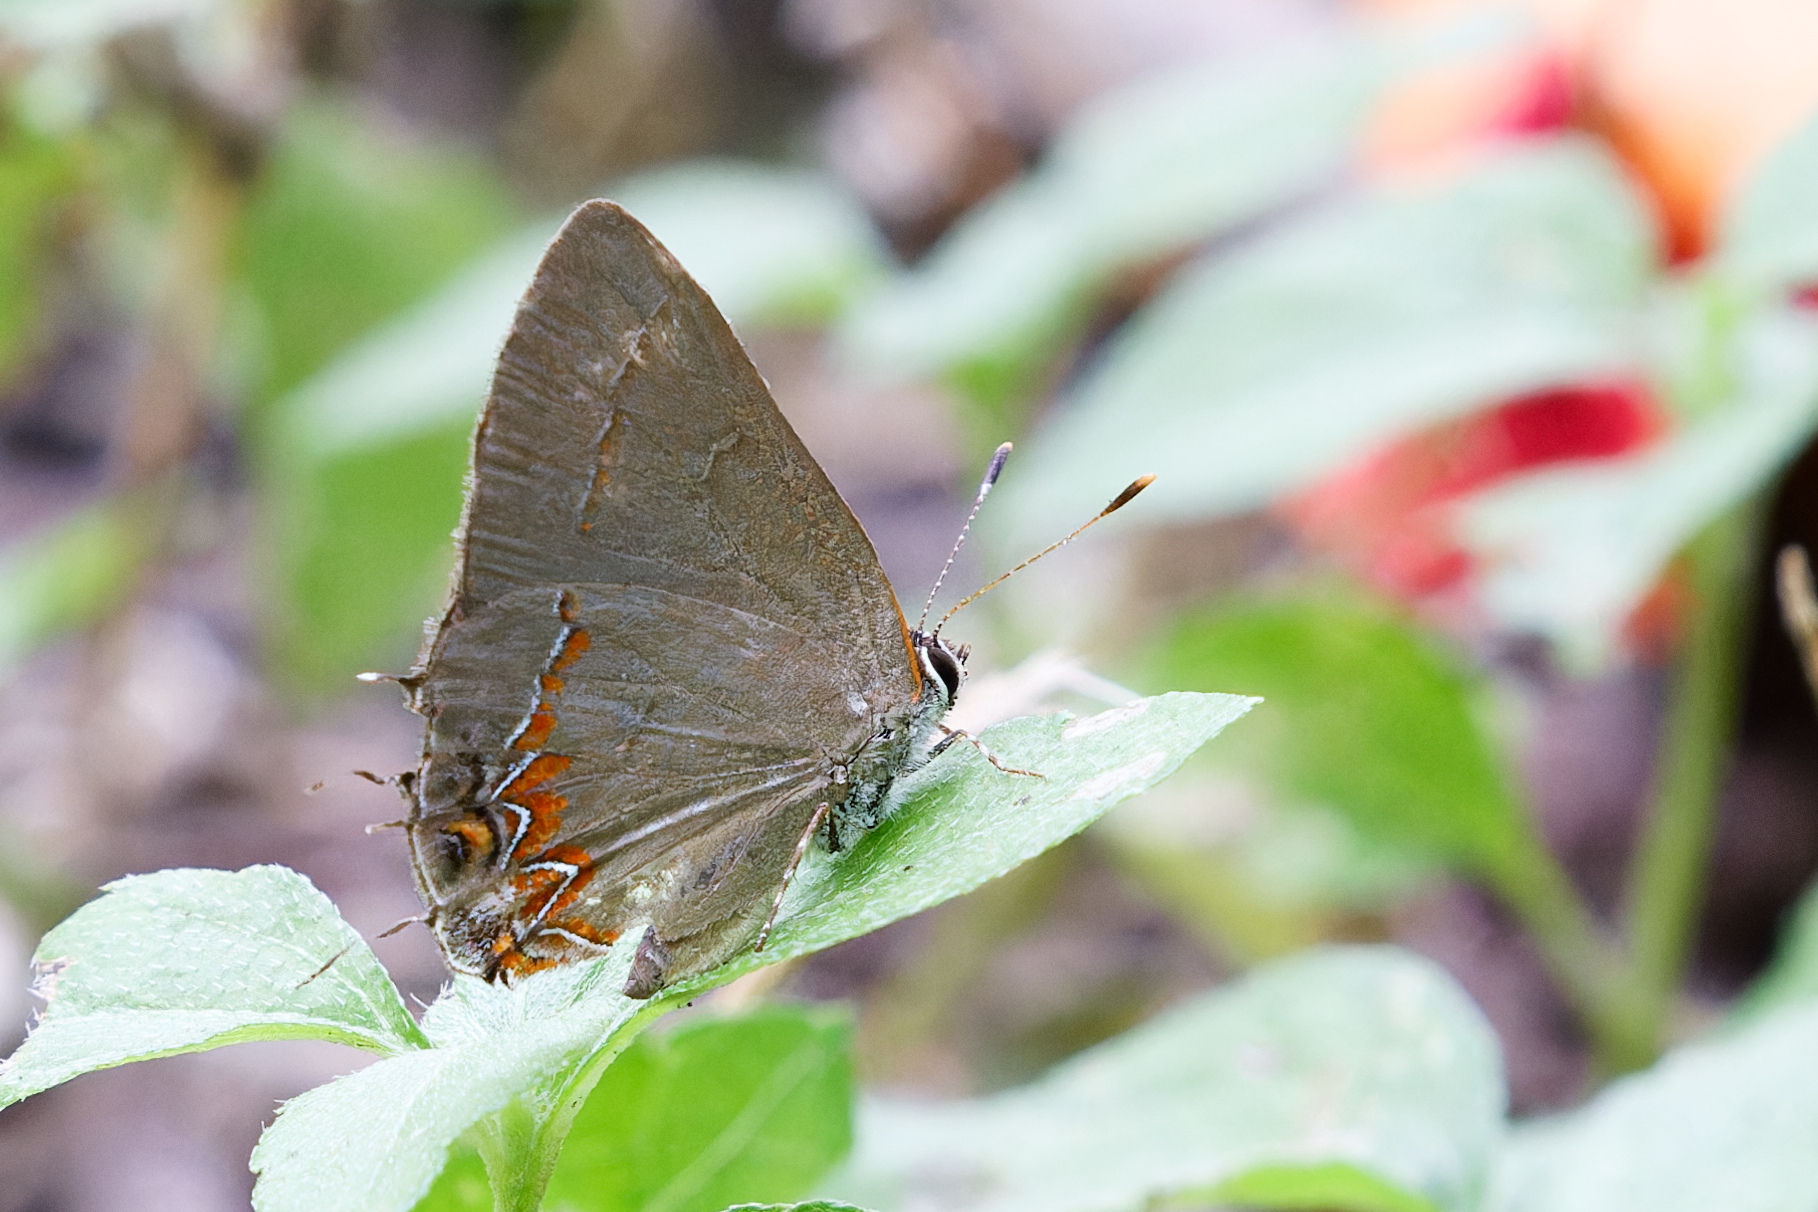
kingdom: Animalia
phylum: Arthropoda
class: Insecta
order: Lepidoptera
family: Lycaenidae
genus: Calycopis
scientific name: Calycopis isobeon
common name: Dusky-blue groundstreak
